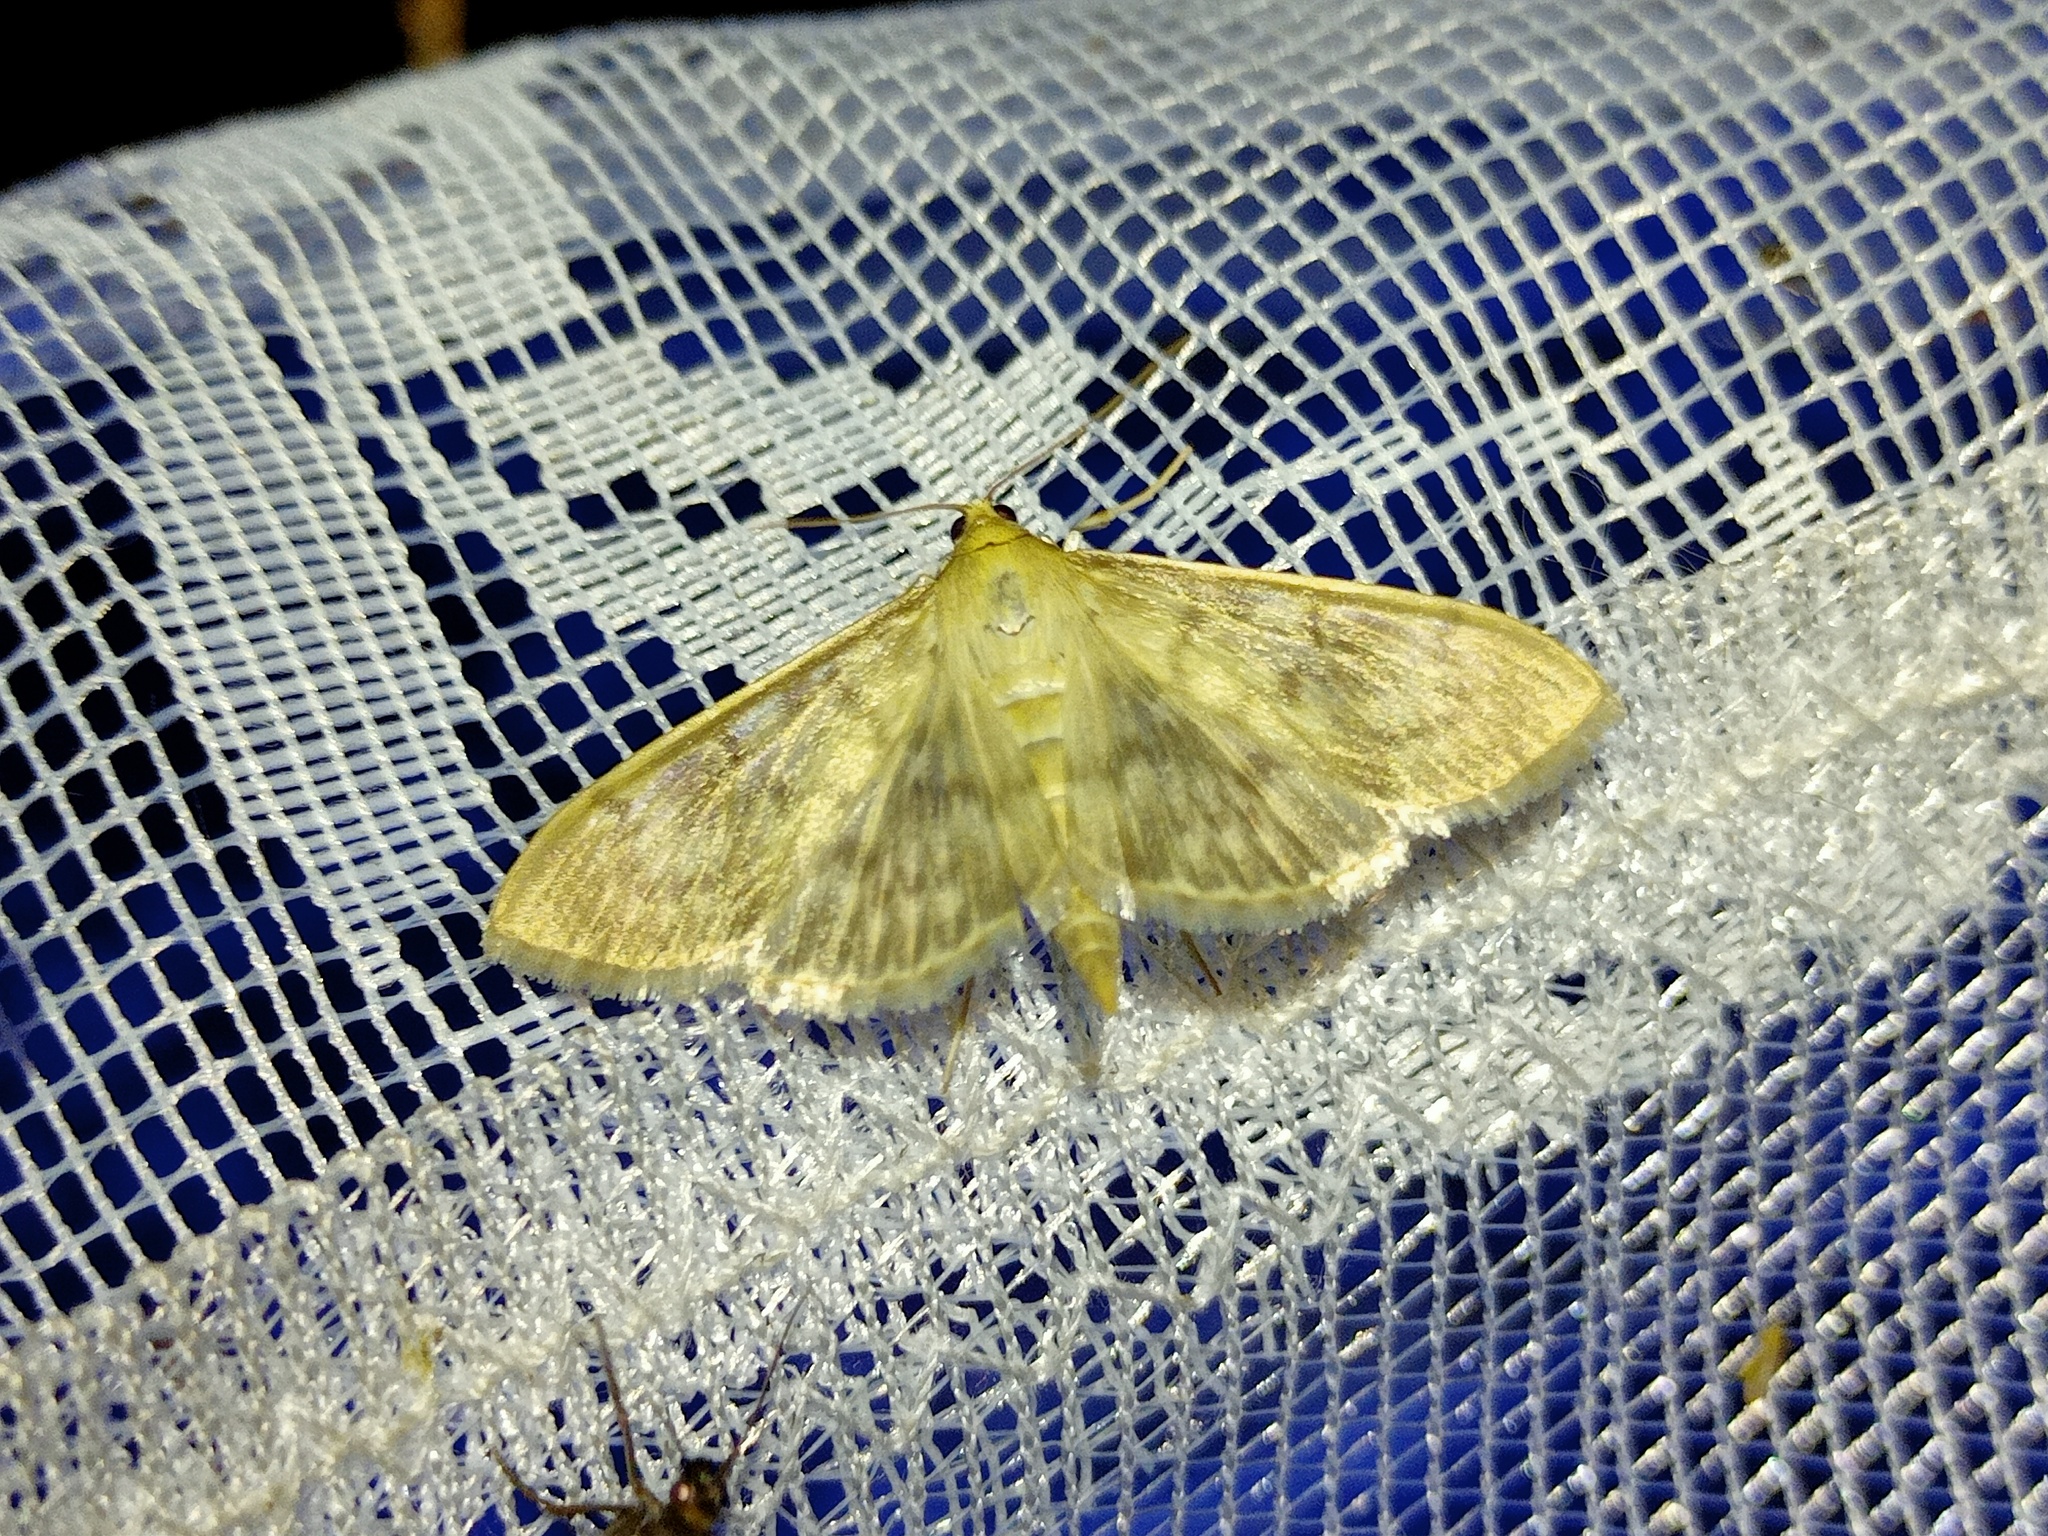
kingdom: Animalia
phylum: Arthropoda
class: Insecta
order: Lepidoptera
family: Crambidae
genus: Patania
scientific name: Patania ruralis
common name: Mother of pearl
